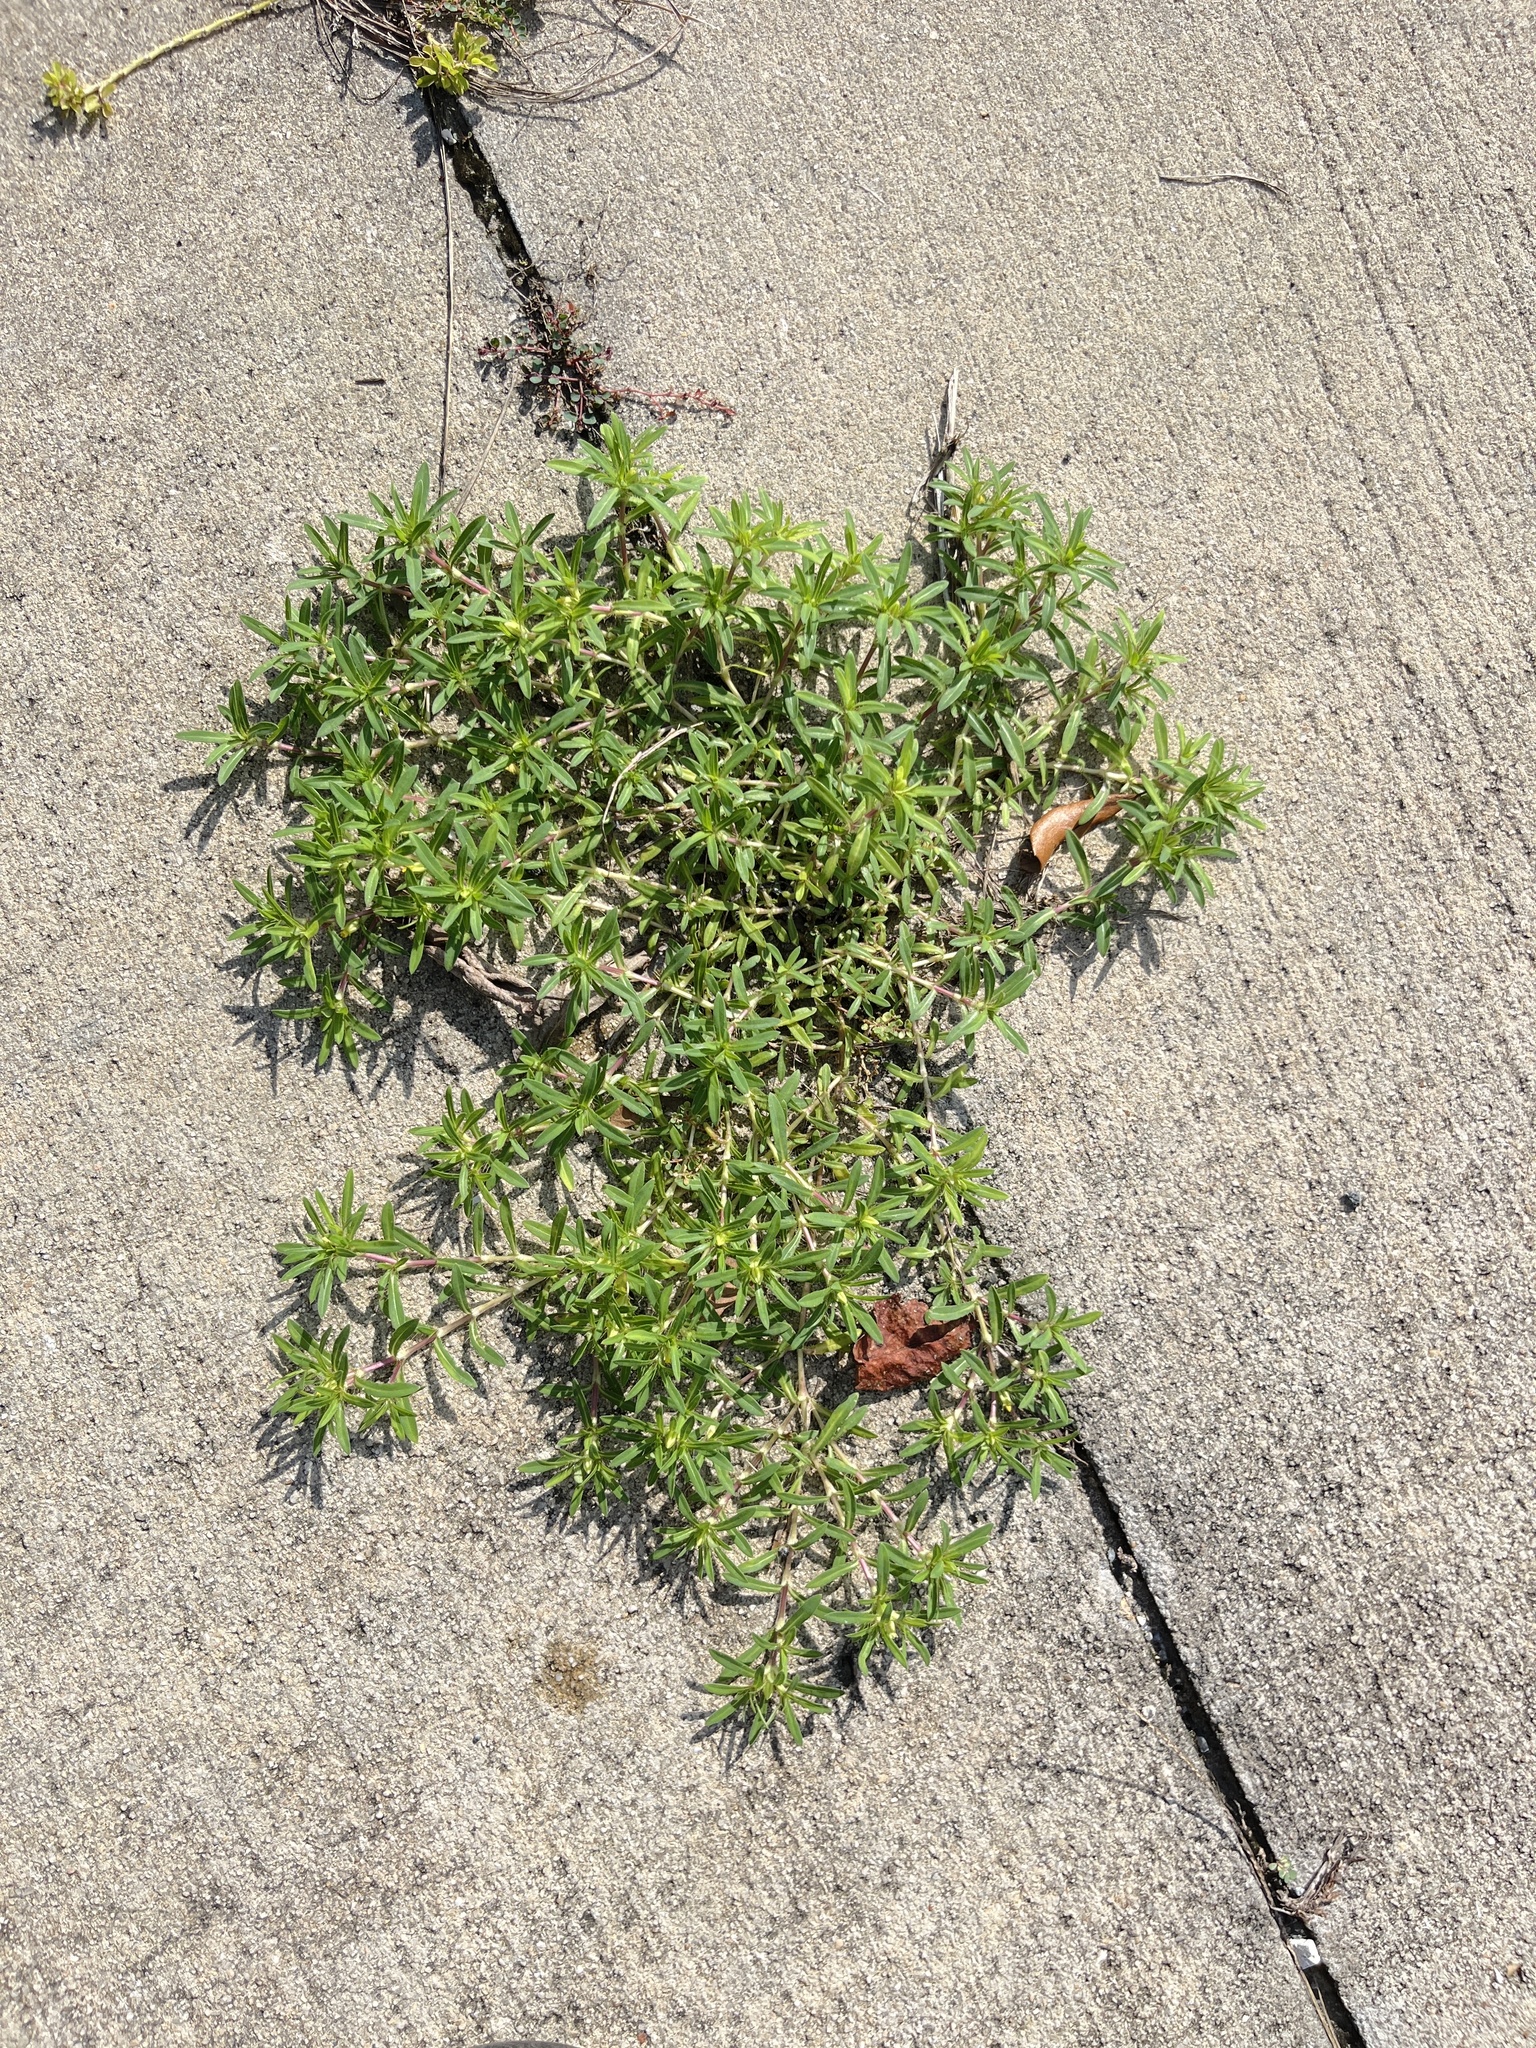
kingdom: Plantae
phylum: Tracheophyta
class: Magnoliopsida
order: Asterales
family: Asteraceae
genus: Pectis
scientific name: Pectis prostrata
